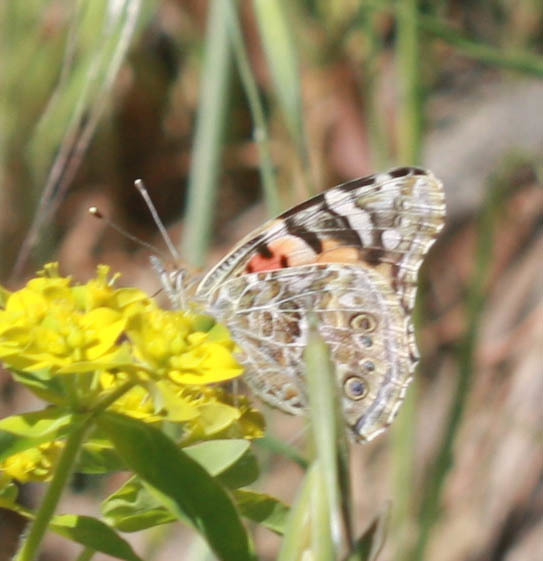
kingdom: Animalia
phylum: Arthropoda
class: Insecta
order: Lepidoptera
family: Nymphalidae
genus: Vanessa
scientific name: Vanessa cardui
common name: Painted lady
